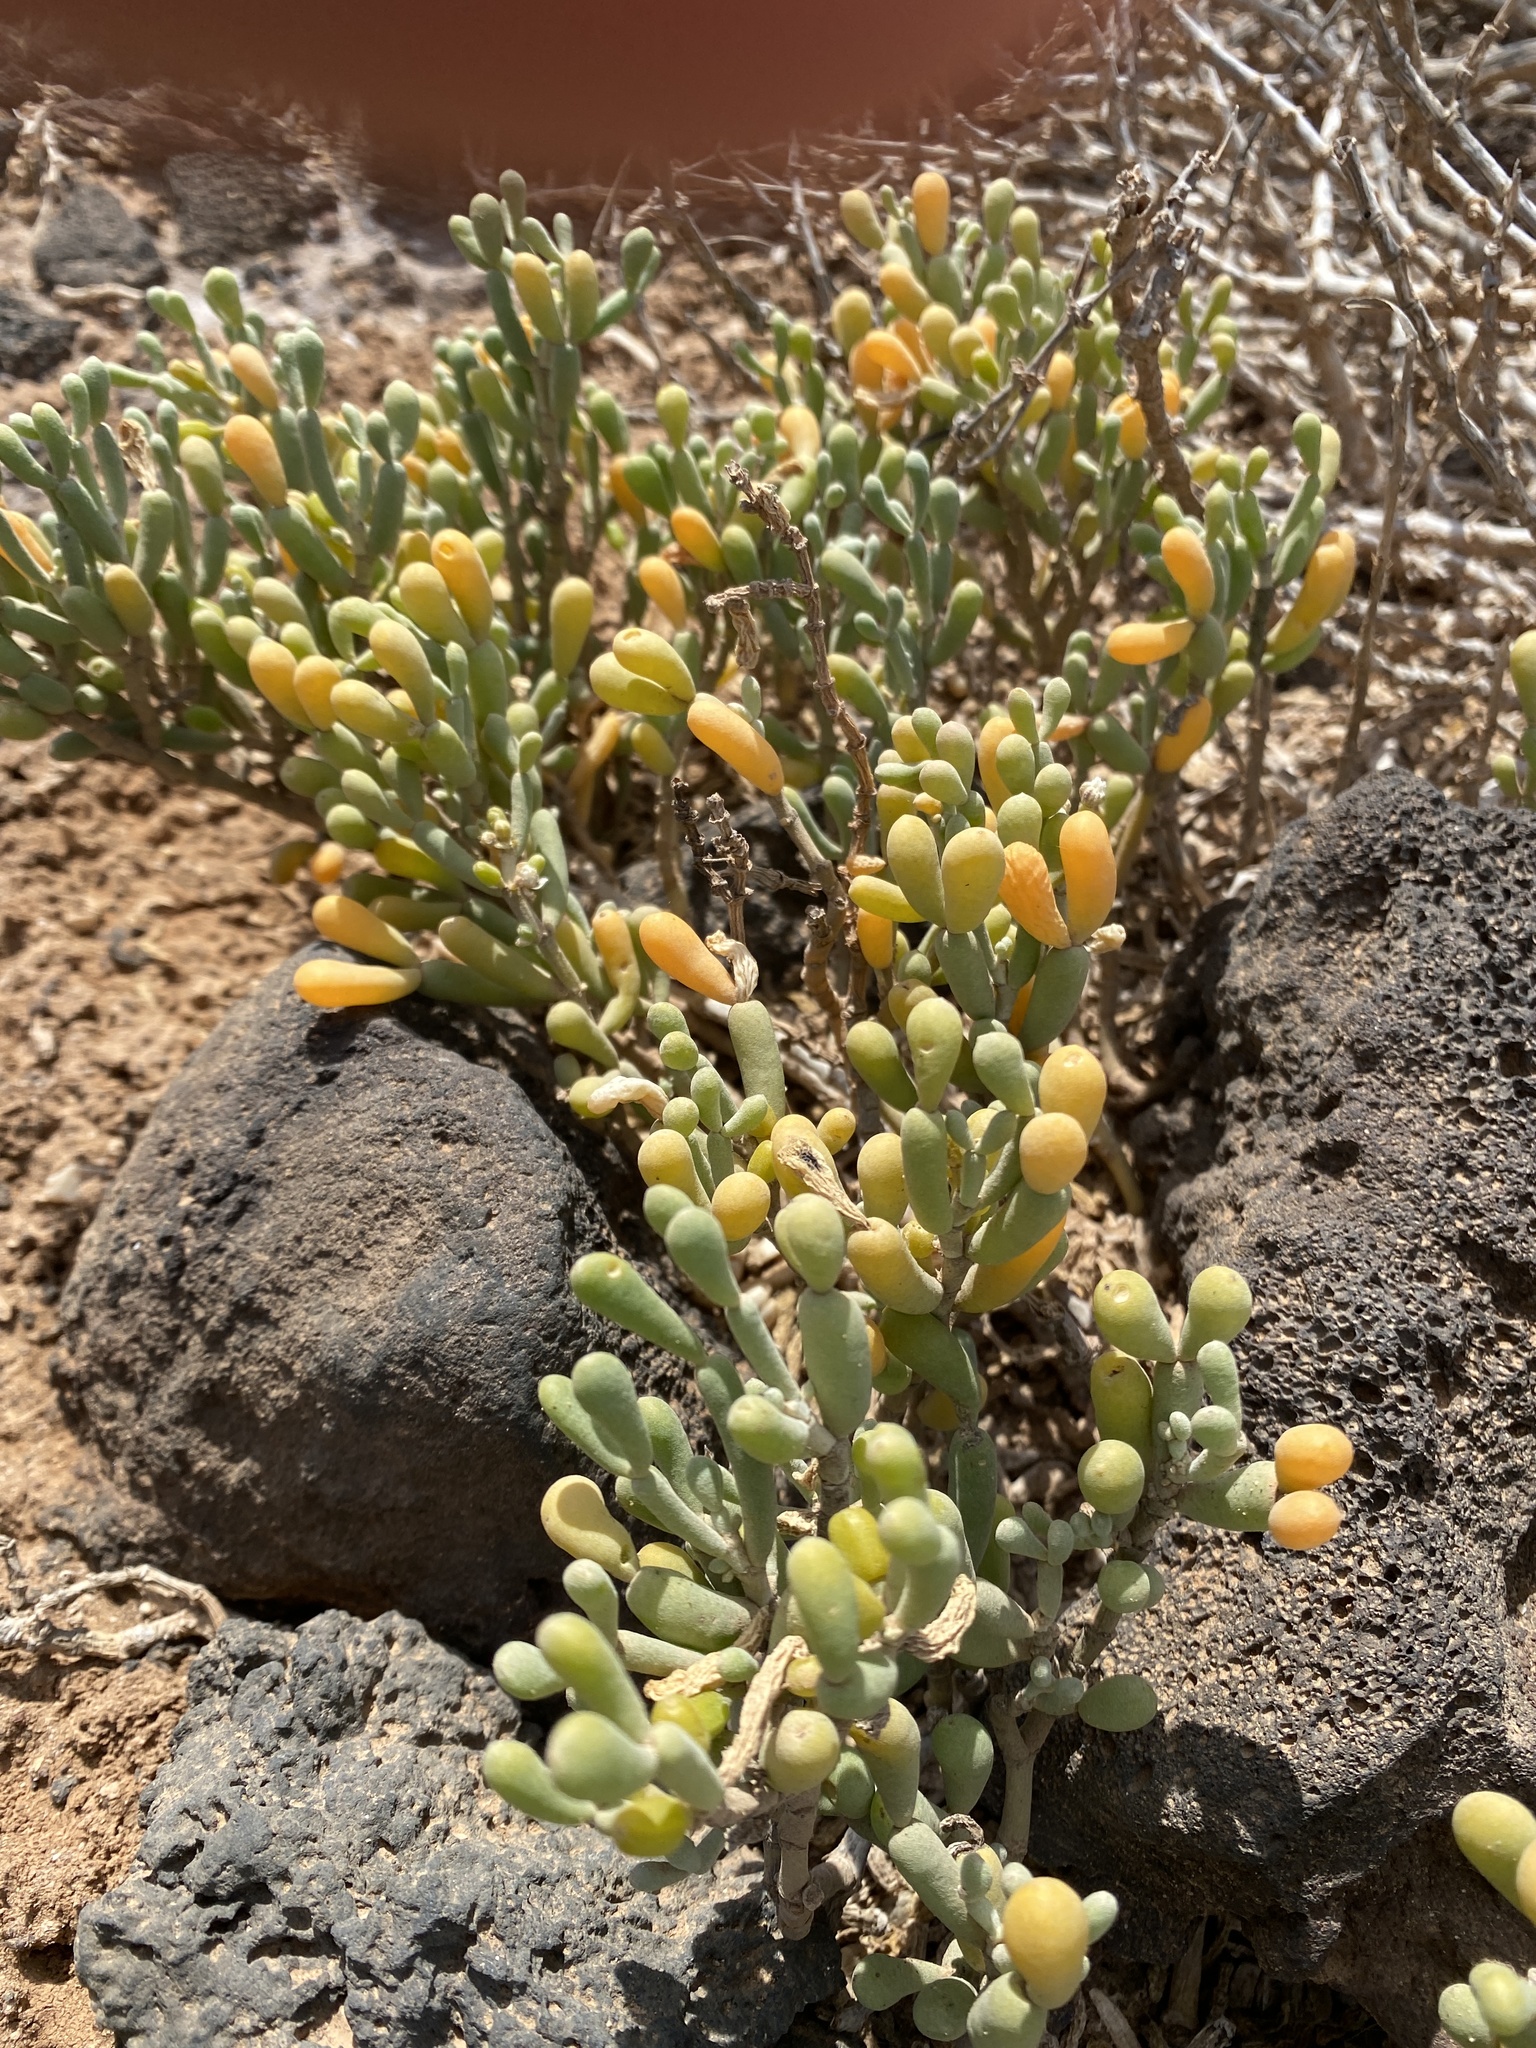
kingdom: Plantae
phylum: Tracheophyta
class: Magnoliopsida
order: Zygophyllales
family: Zygophyllaceae
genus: Tetraena
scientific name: Tetraena fontanesii
